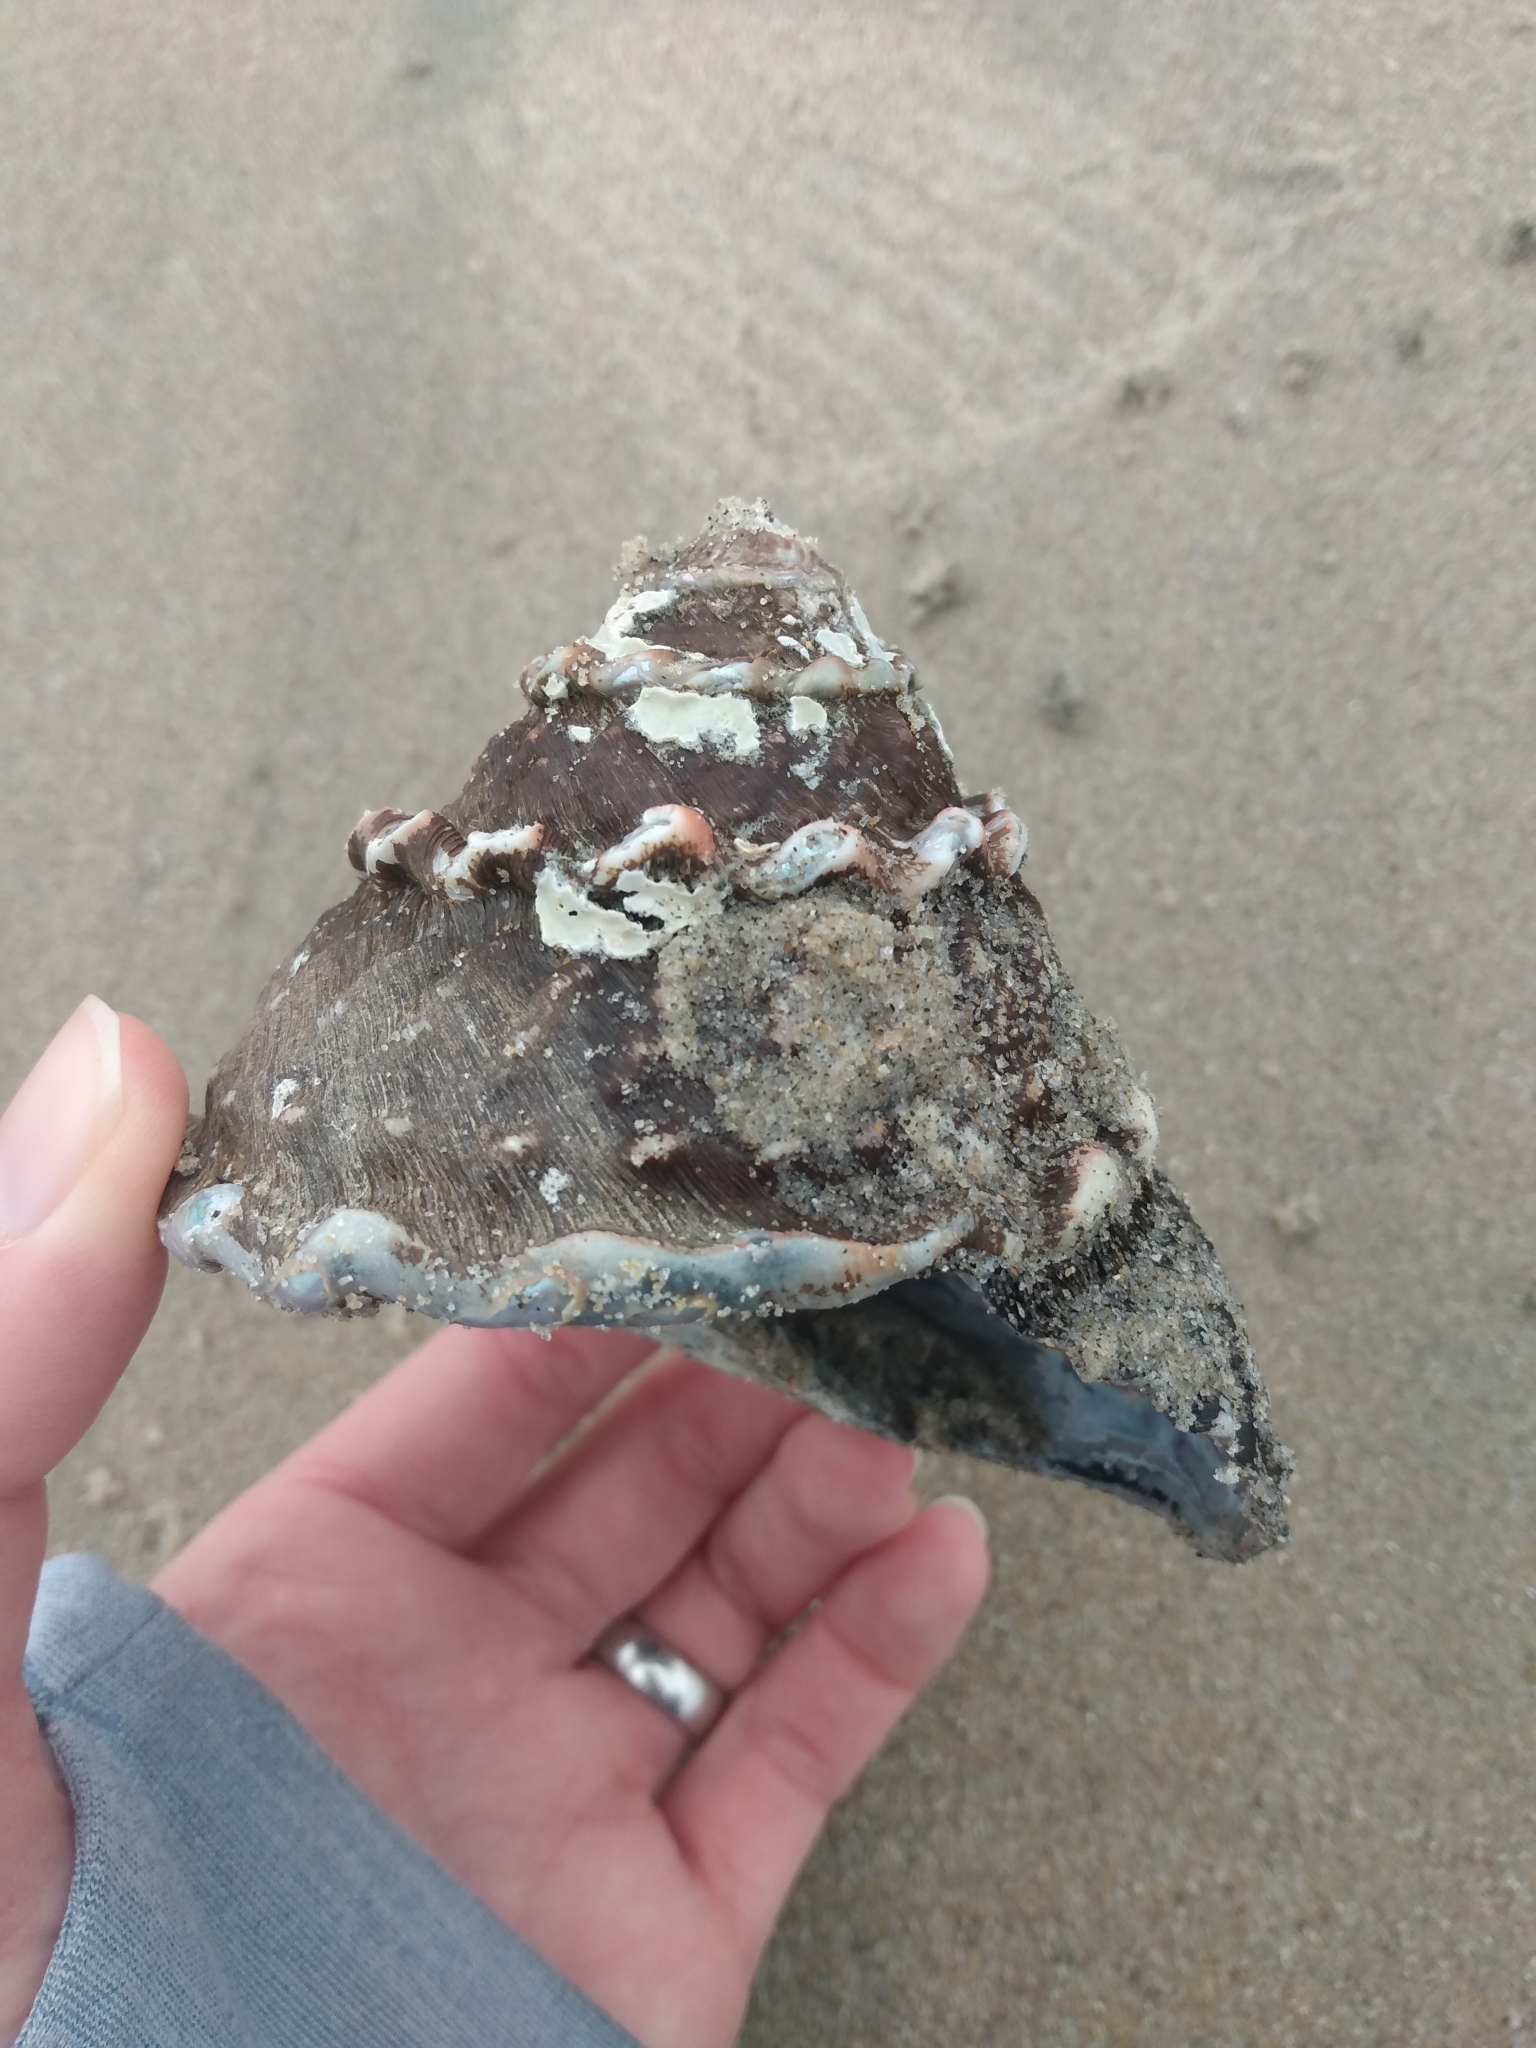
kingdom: Animalia
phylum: Mollusca
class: Gastropoda
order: Trochida
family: Turbinidae
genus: Megastraea
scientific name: Megastraea undosa
